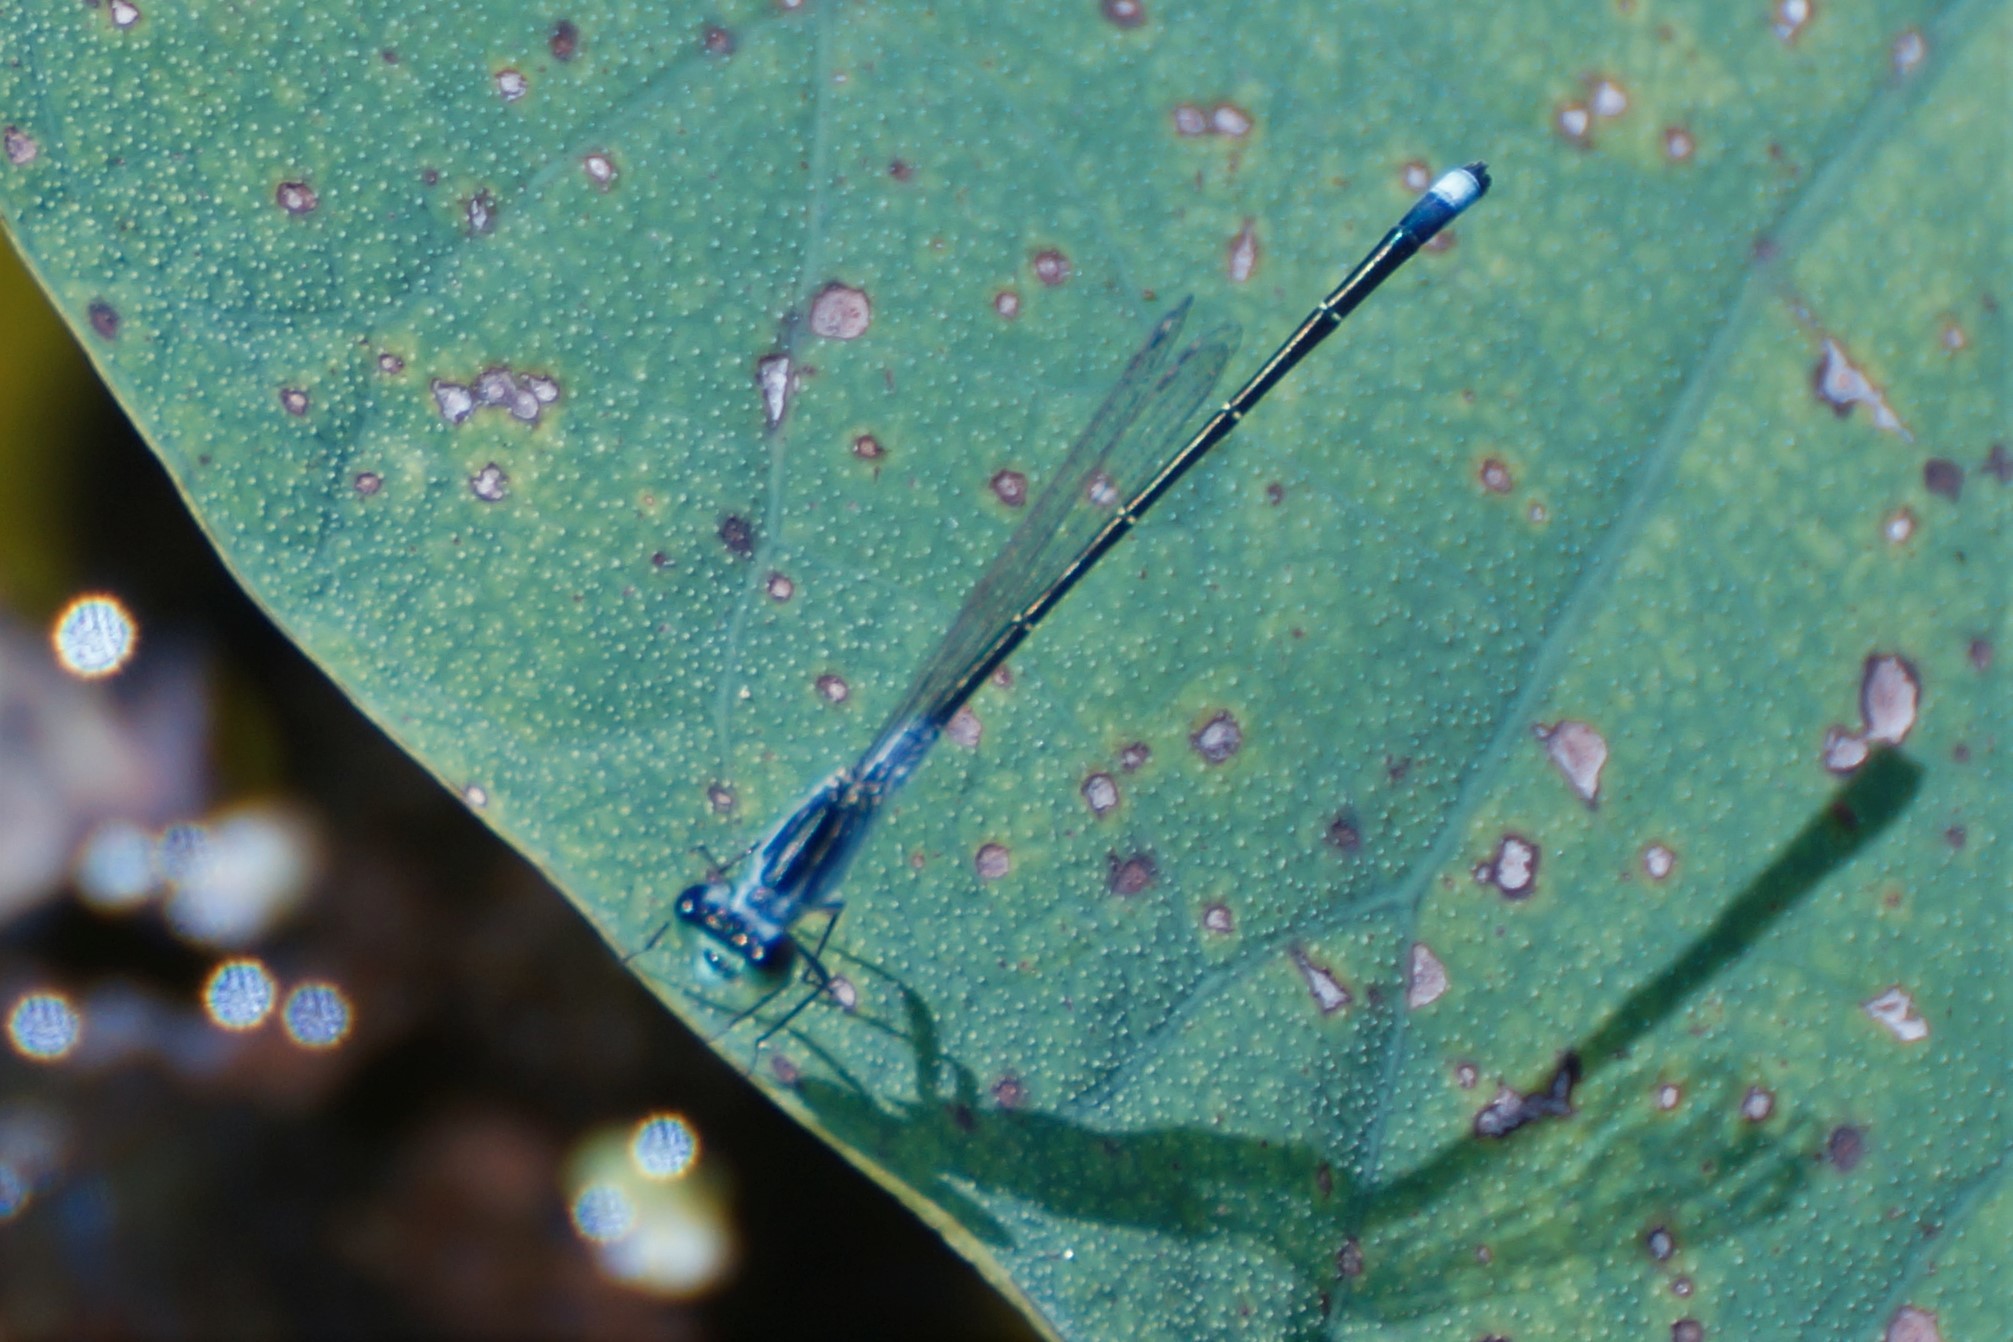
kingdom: Animalia
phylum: Arthropoda
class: Insecta
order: Odonata
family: Coenagrionidae
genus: Ischnura
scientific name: Ischnura pruinescens
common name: Colourful bluetail
